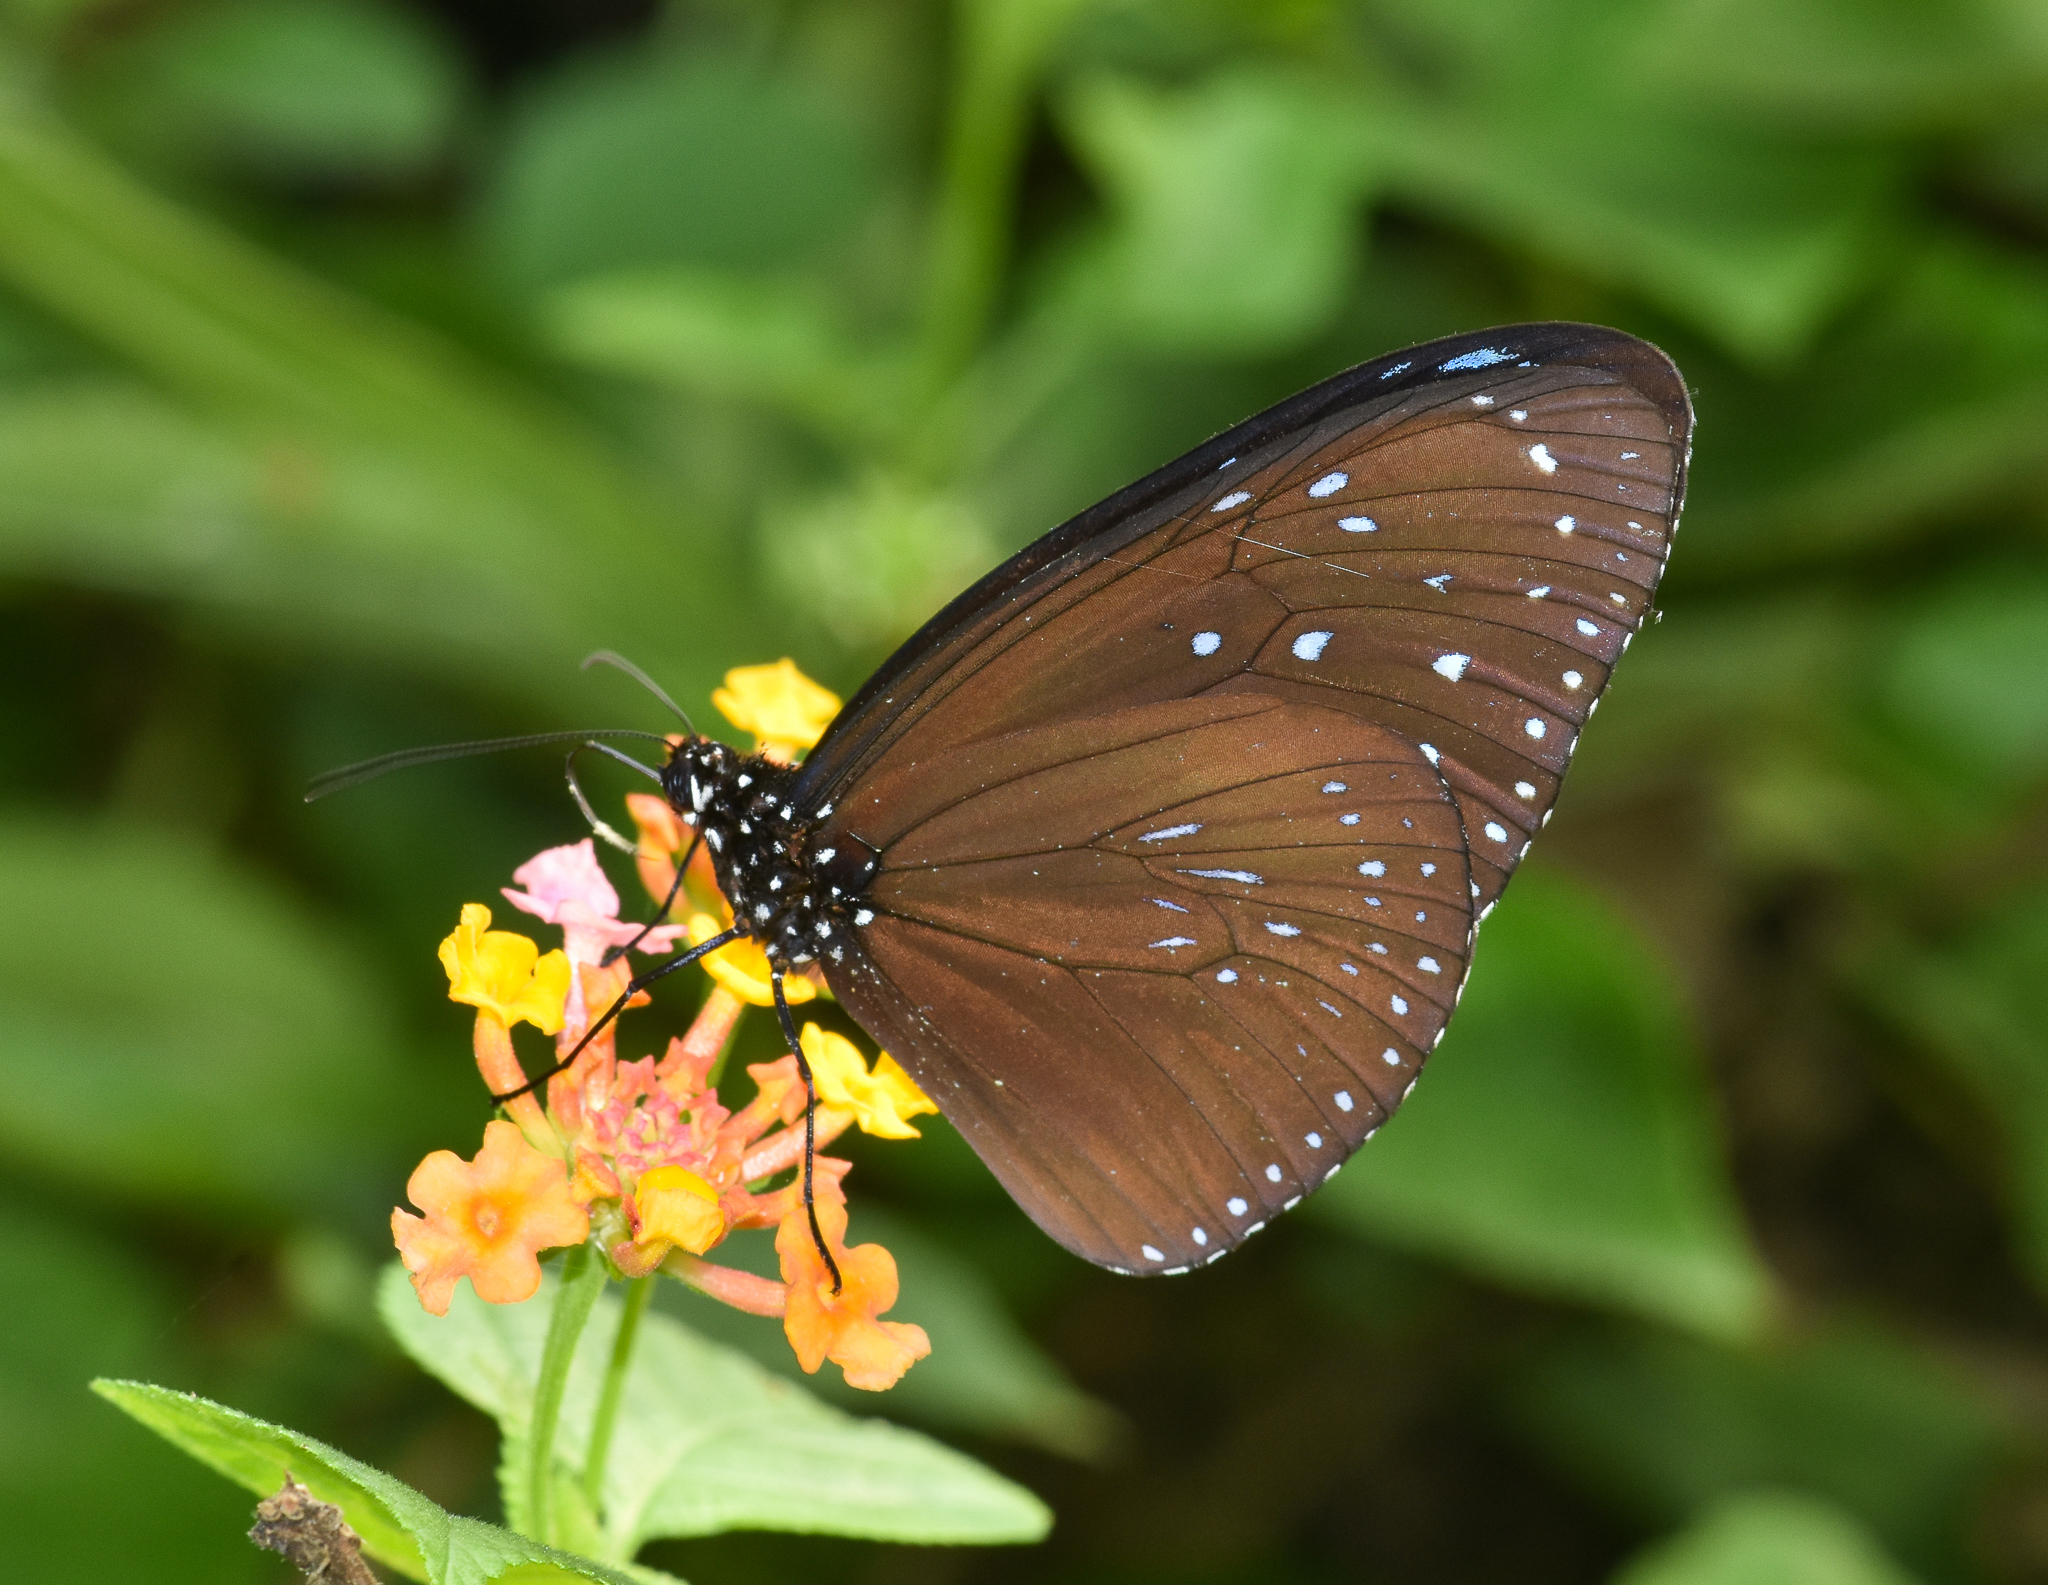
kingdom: Animalia
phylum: Arthropoda
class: Insecta
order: Lepidoptera
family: Nymphalidae
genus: Euploea
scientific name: Euploea mulciber
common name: Striped blue crow butterfly
